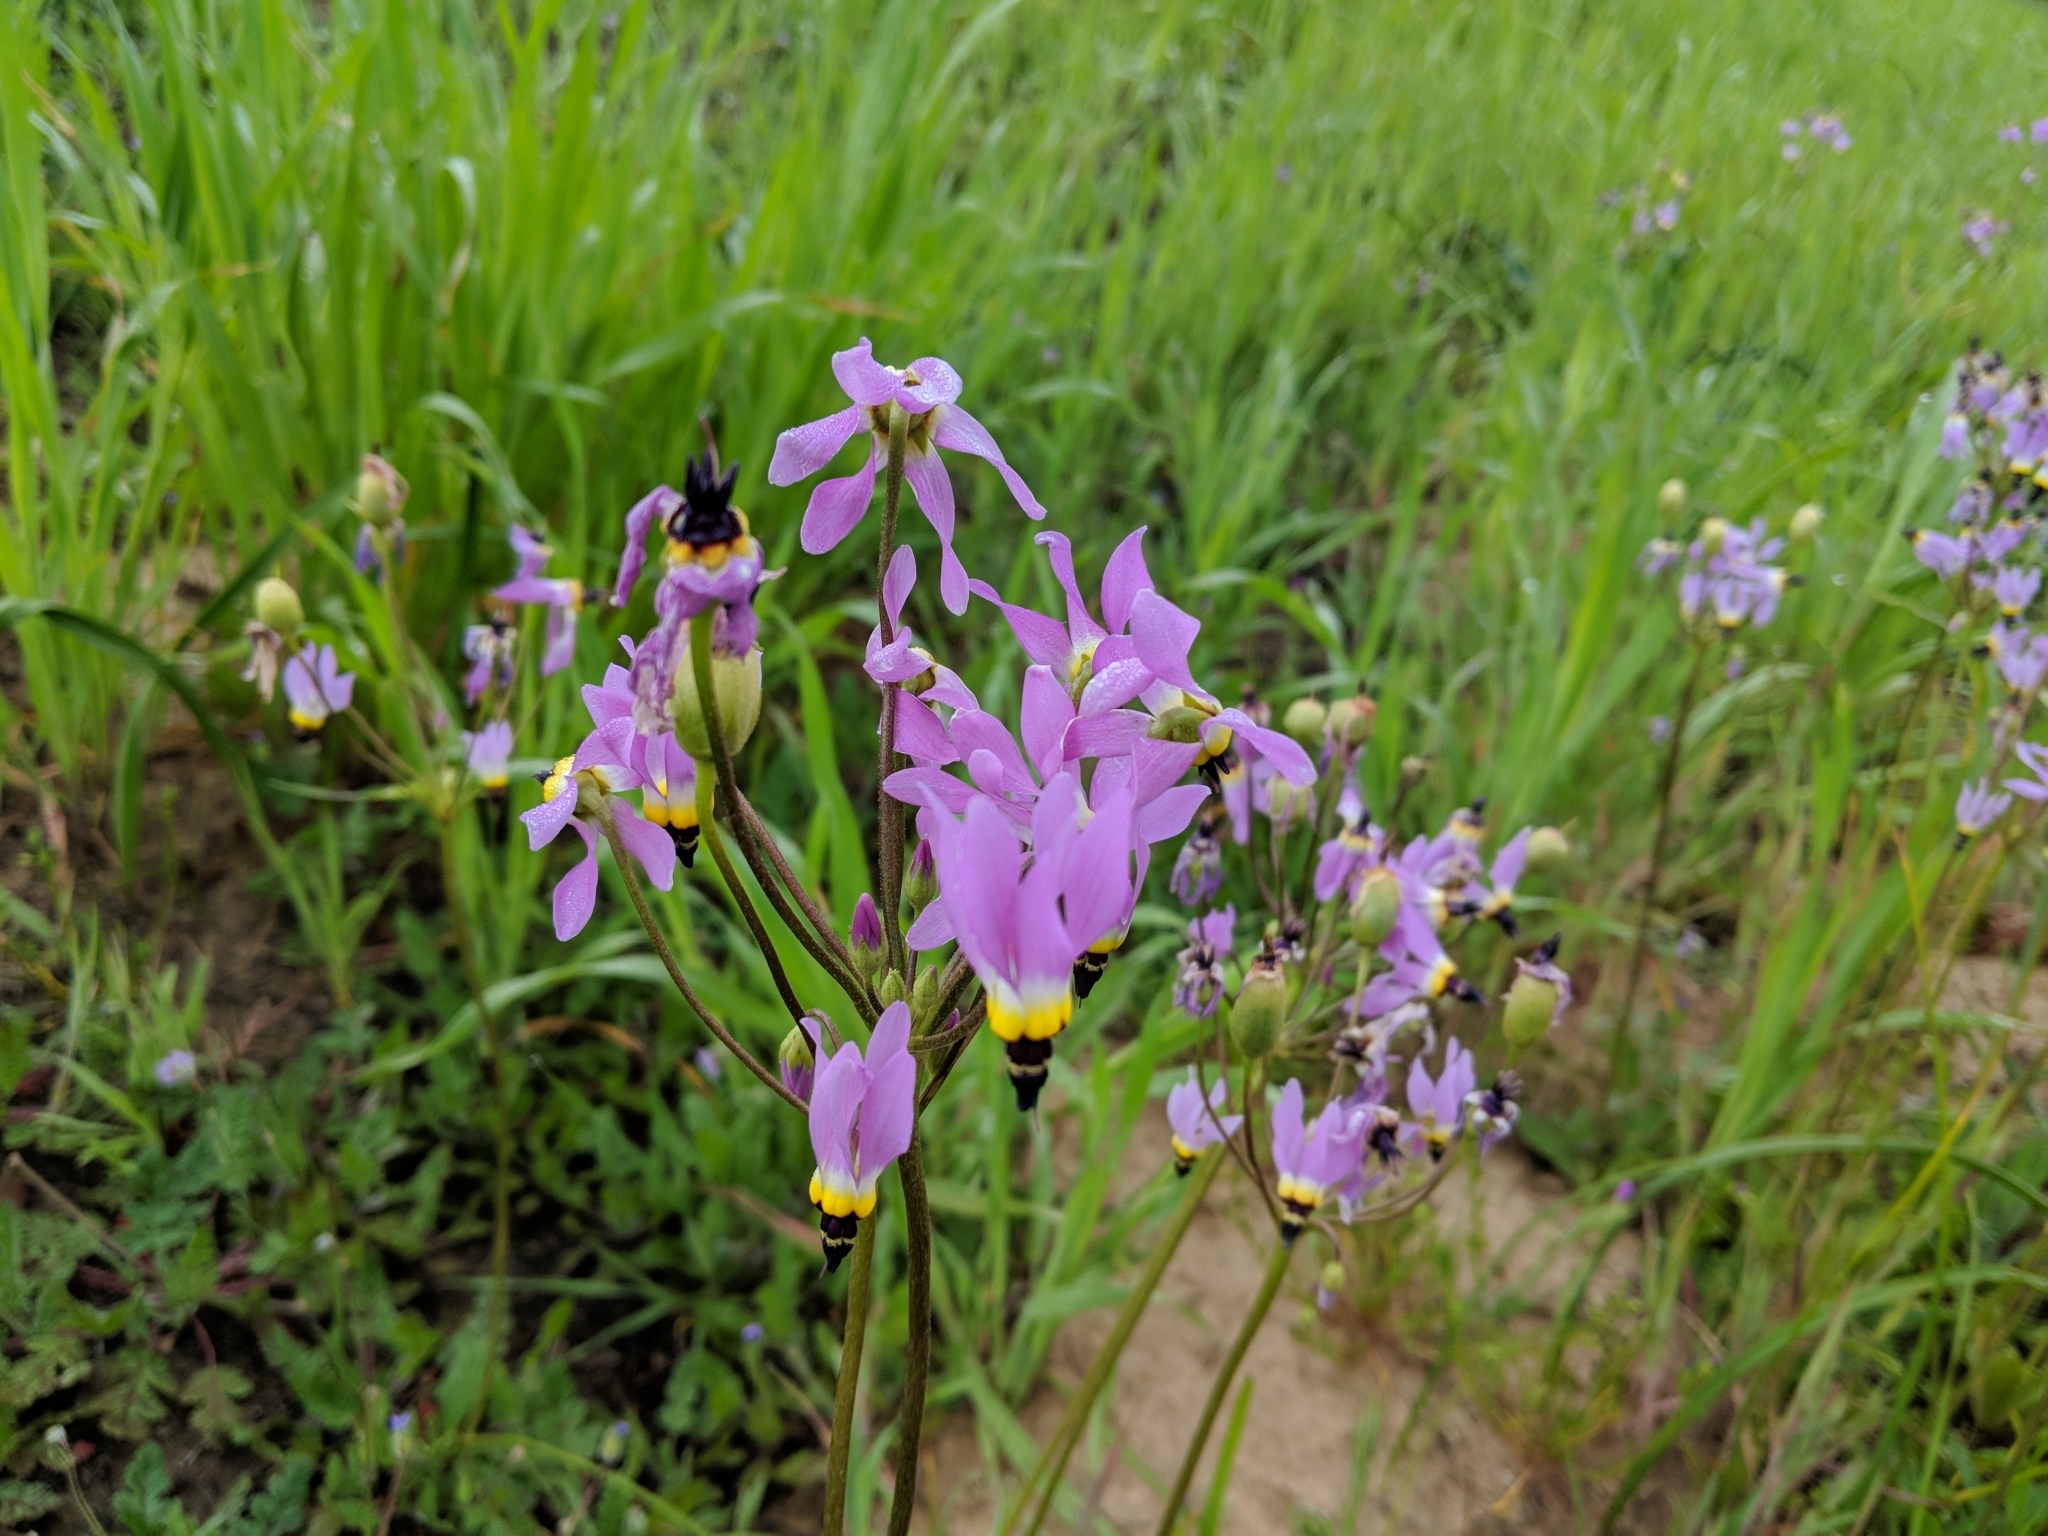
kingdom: Plantae
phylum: Tracheophyta
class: Magnoliopsida
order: Ericales
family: Primulaceae
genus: Dodecatheon
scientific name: Dodecatheon clevelandii
